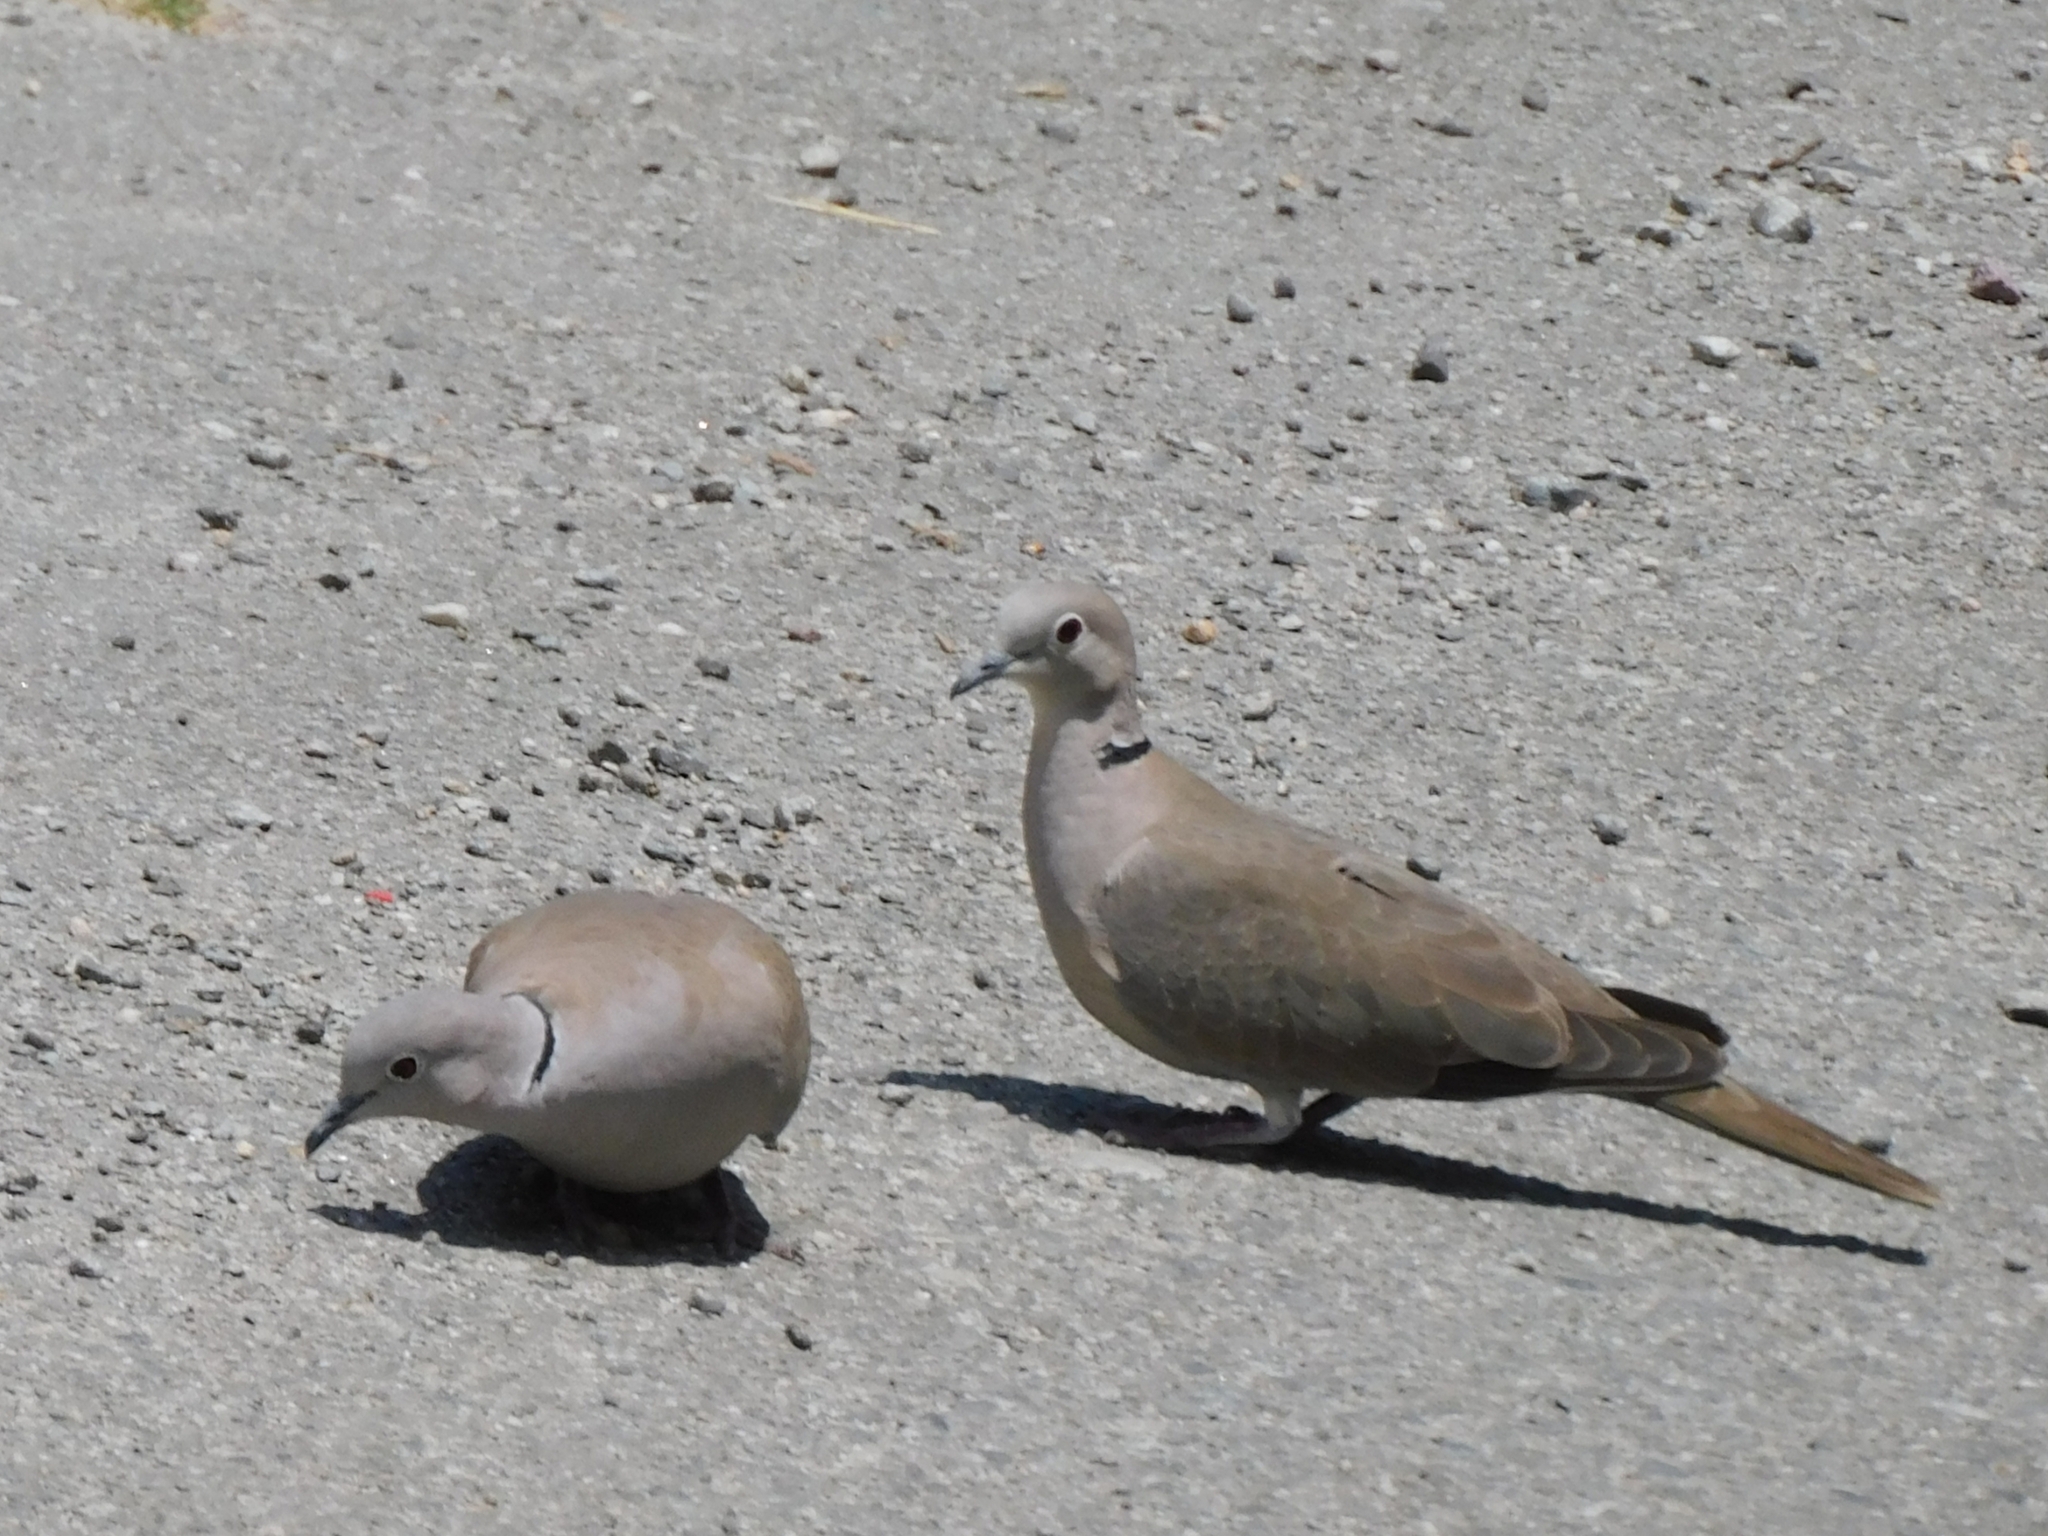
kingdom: Animalia
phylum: Chordata
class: Aves
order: Columbiformes
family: Columbidae
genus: Streptopelia
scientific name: Streptopelia decaocto
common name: Eurasian collared dove
